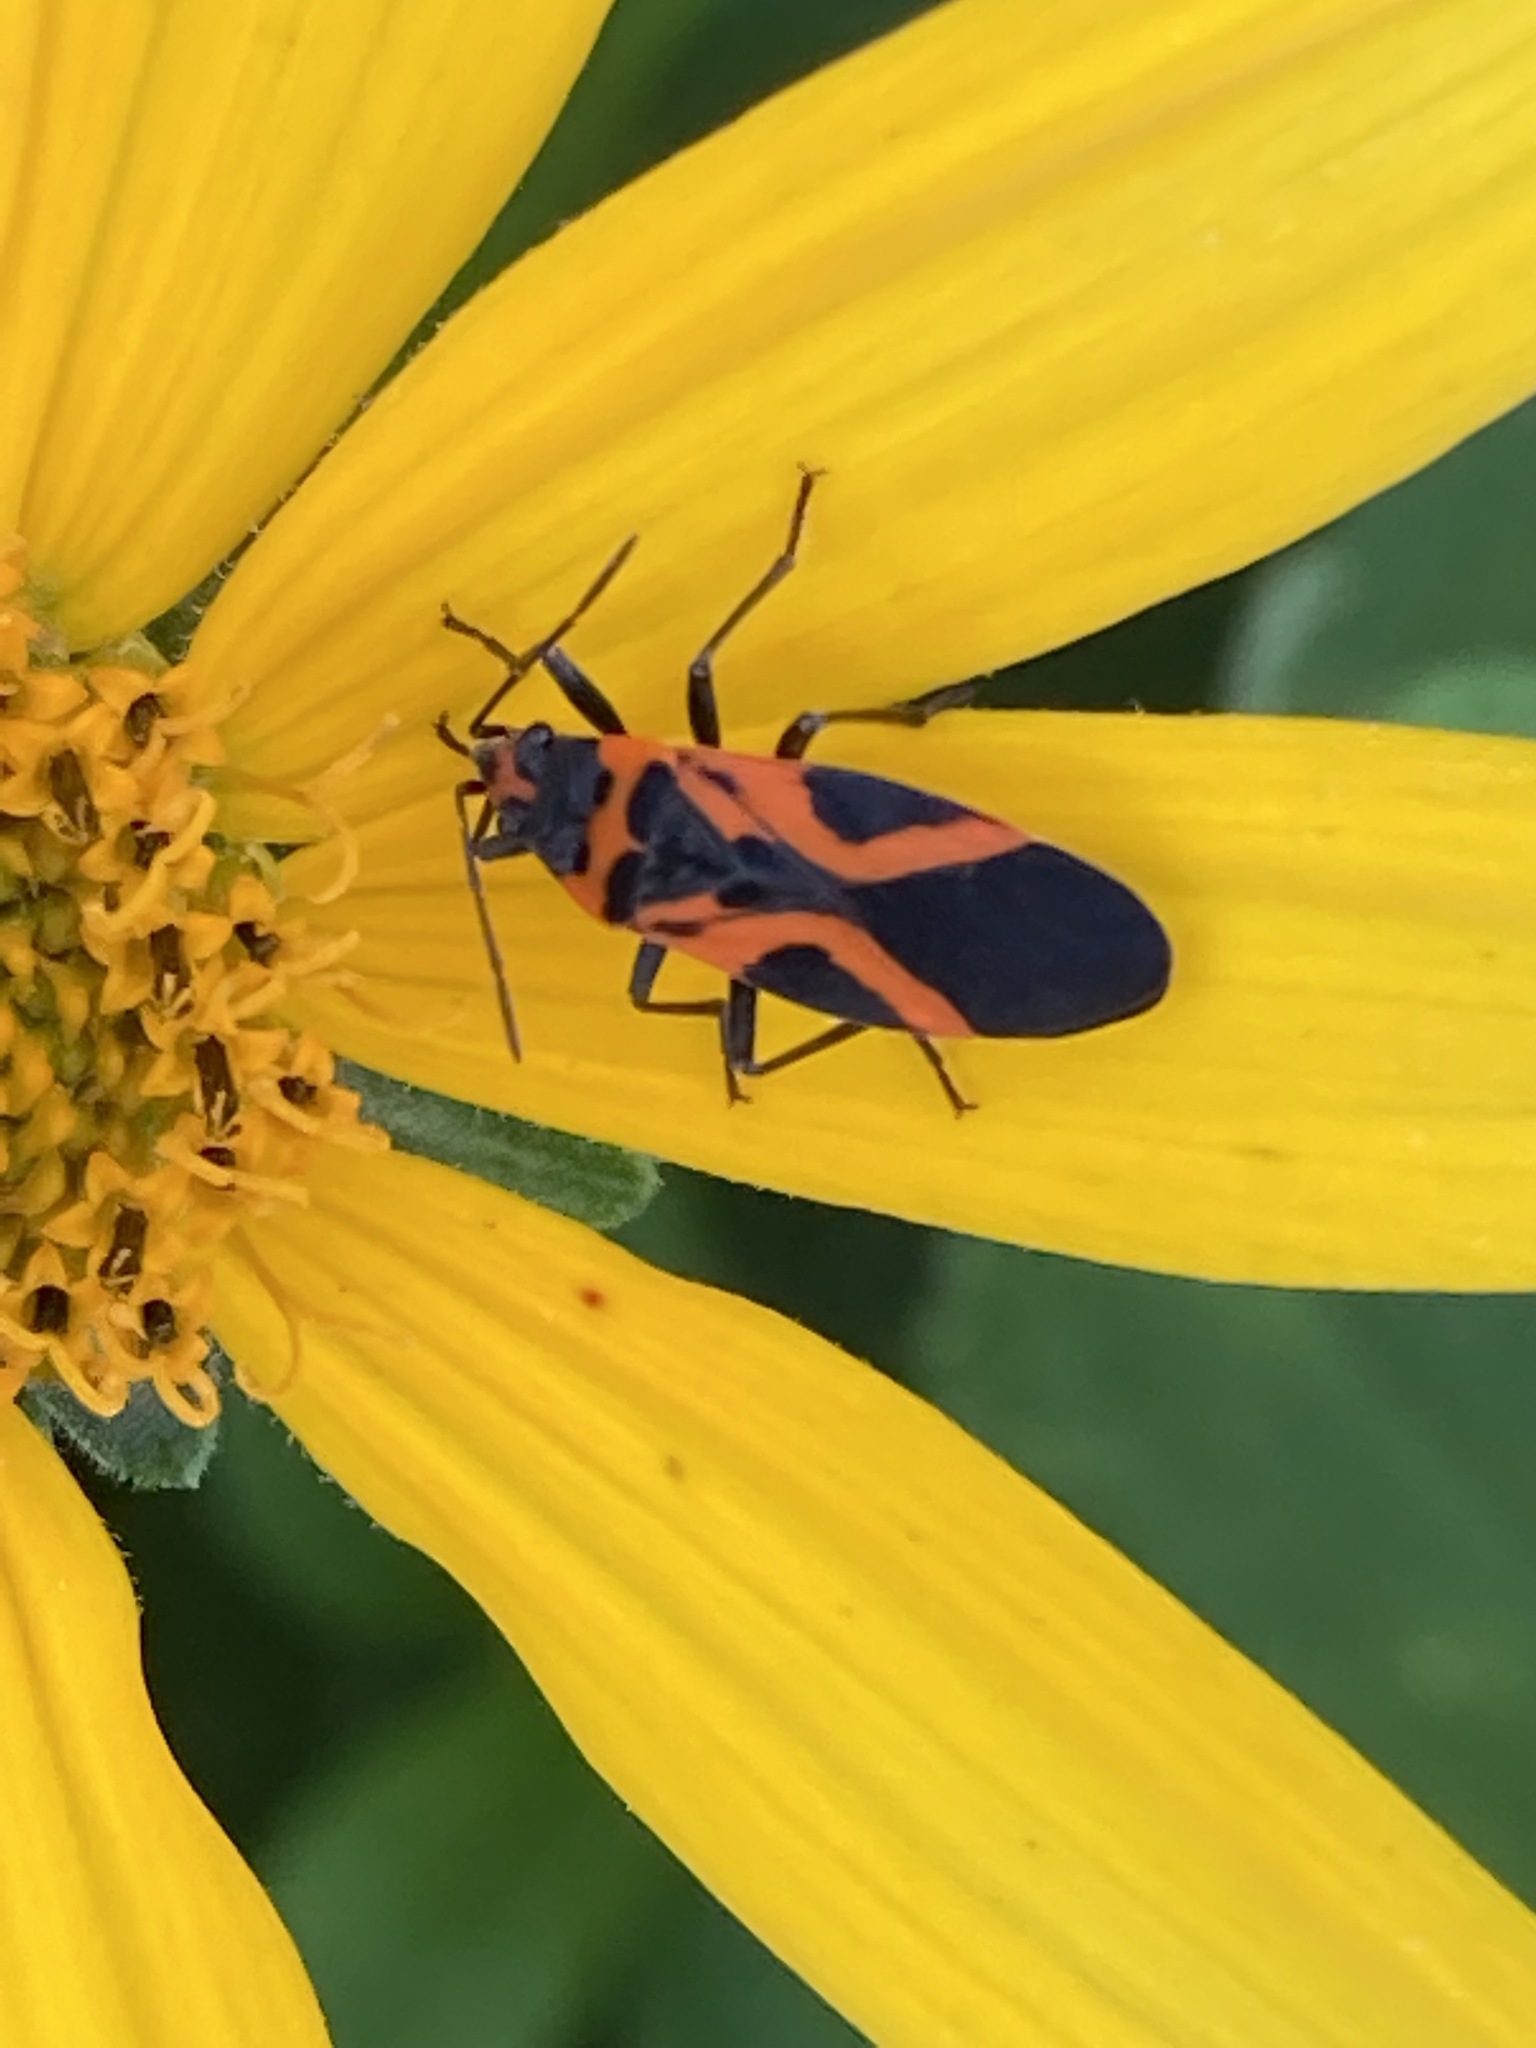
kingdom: Animalia
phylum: Arthropoda
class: Insecta
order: Hemiptera
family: Lygaeidae
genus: Lygaeus
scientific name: Lygaeus turcicus
